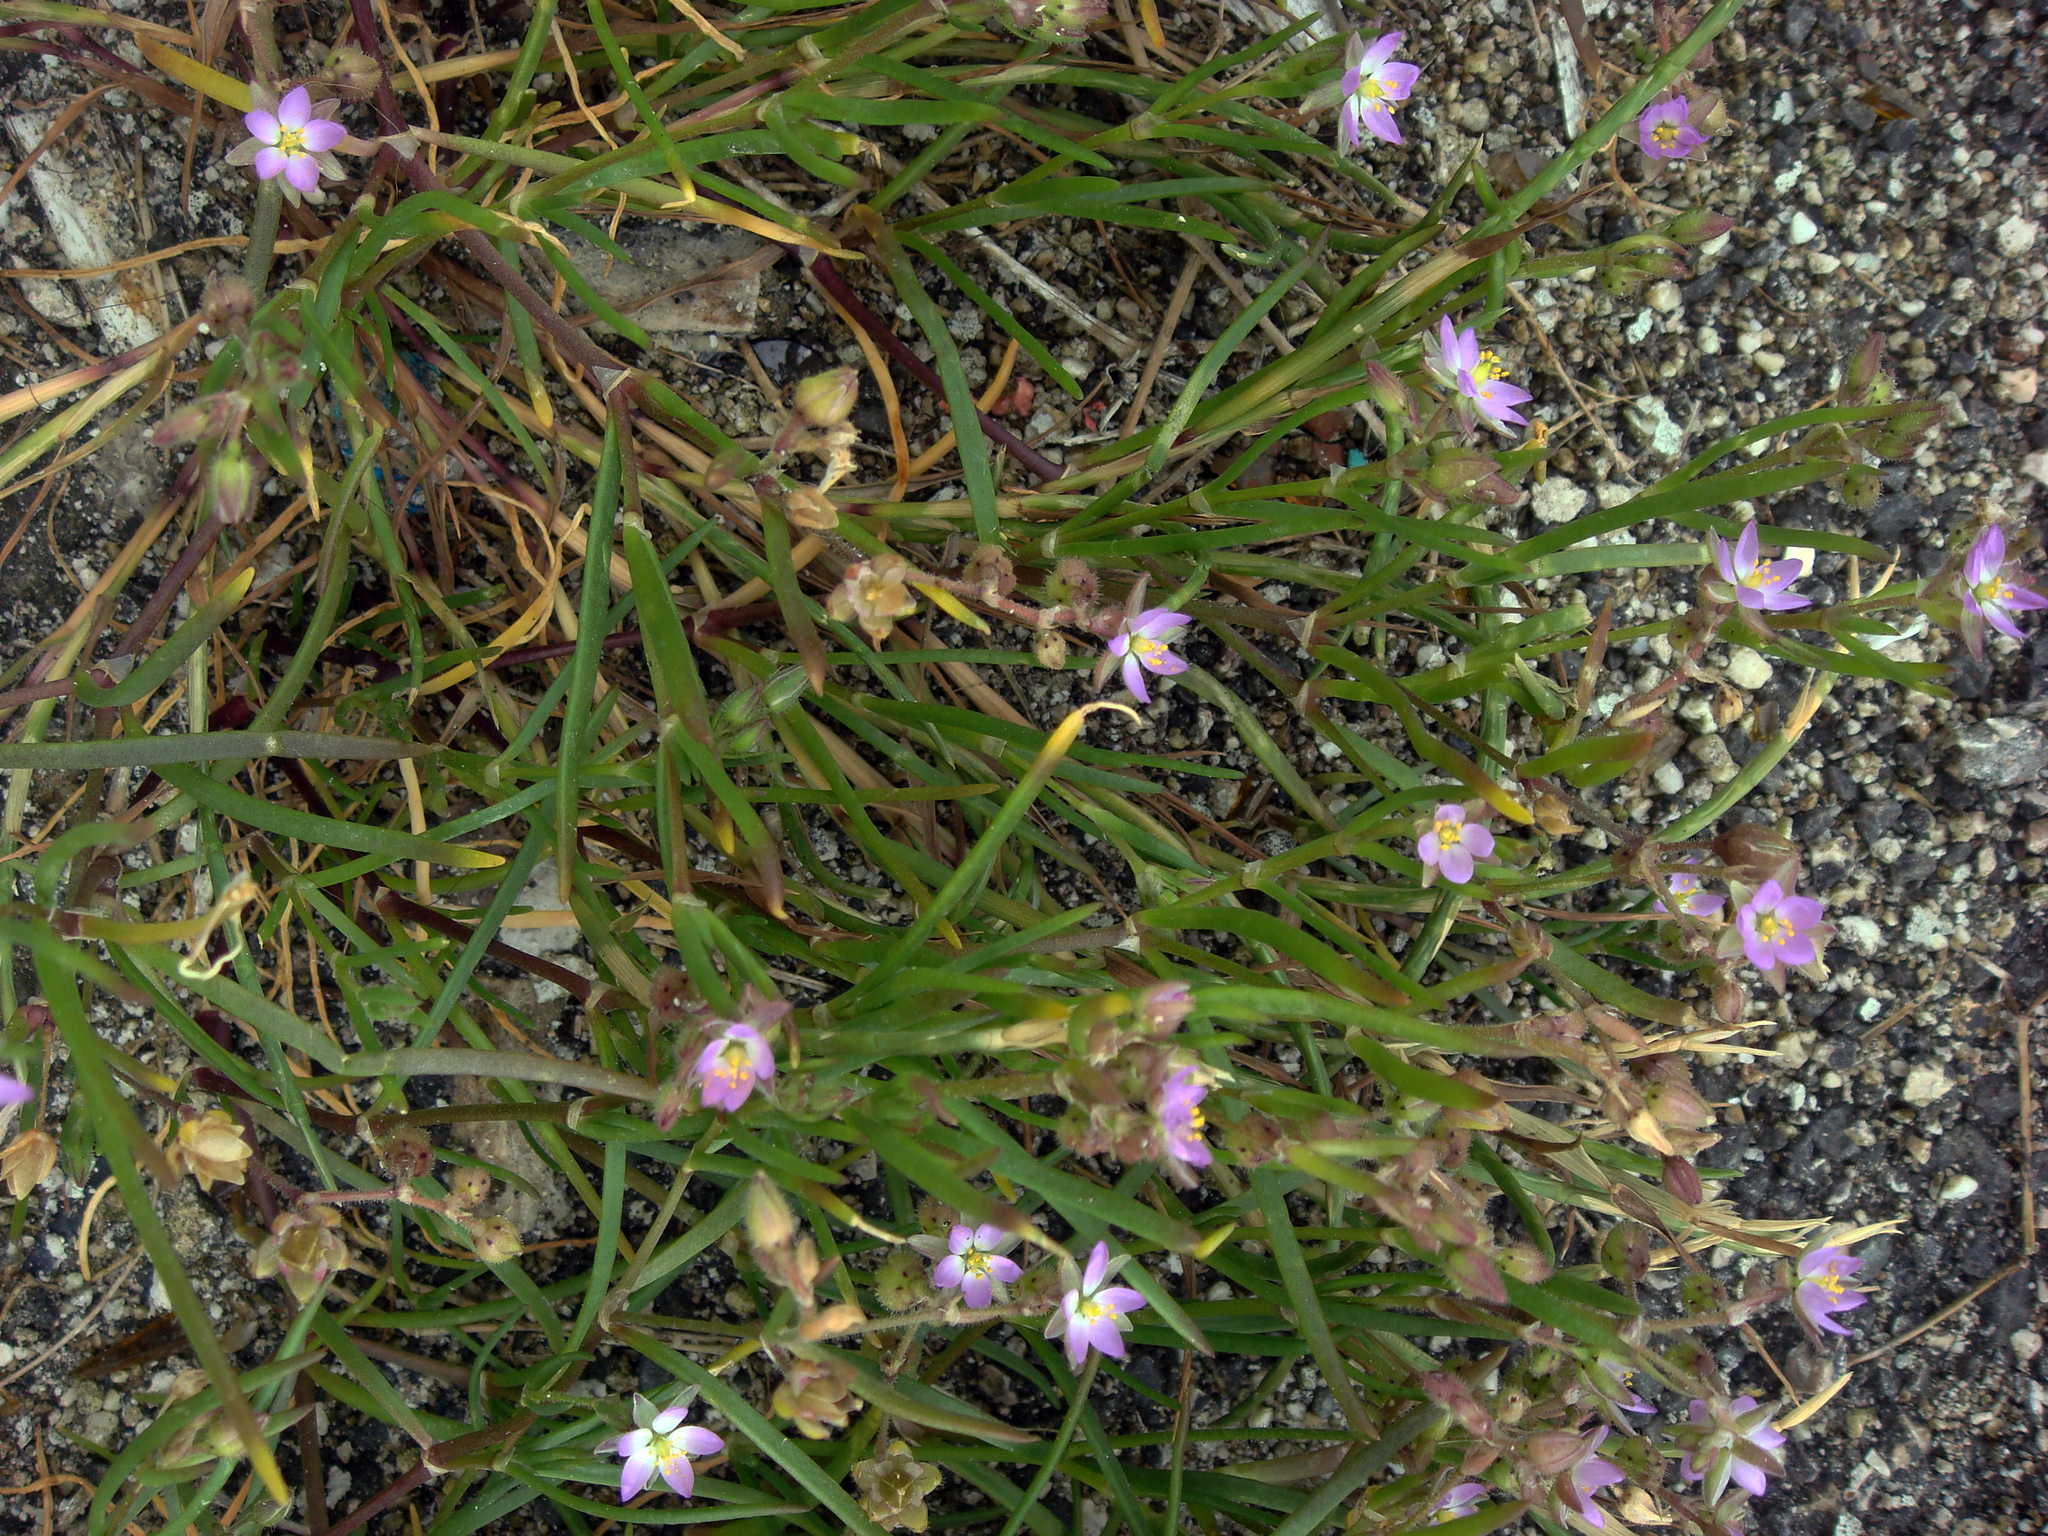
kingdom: Plantae
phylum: Tracheophyta
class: Magnoliopsida
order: Caryophyllales
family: Caryophyllaceae
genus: Spergularia
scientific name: Spergularia media
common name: Greater sea-spurrey
